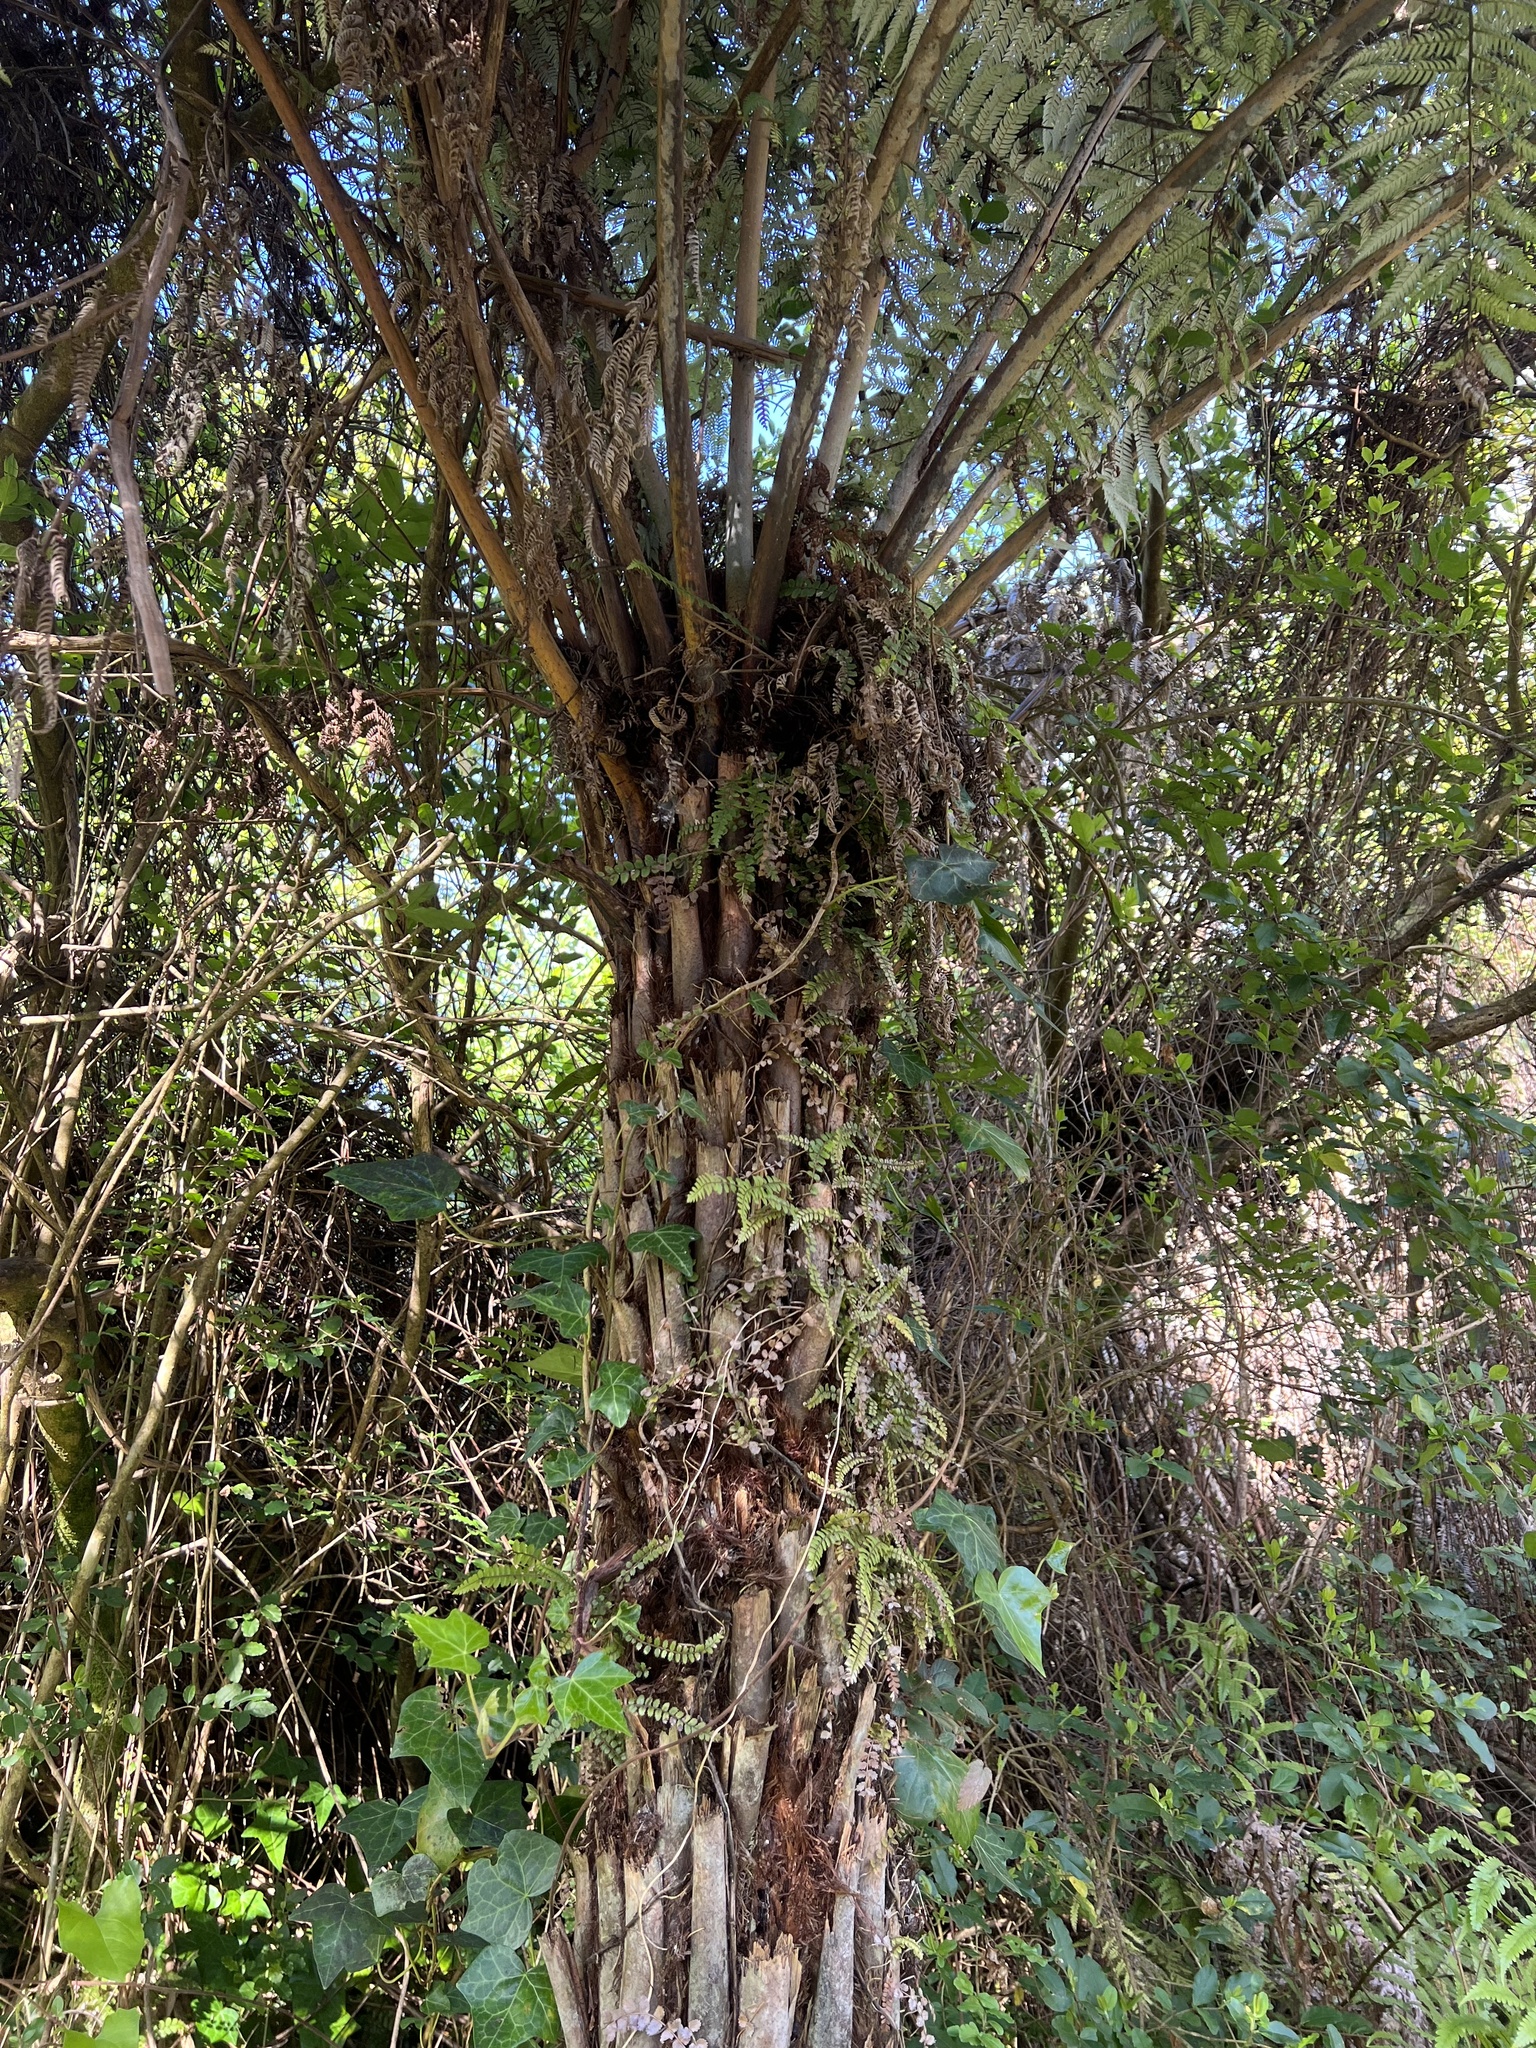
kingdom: Plantae
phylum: Tracheophyta
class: Polypodiopsida
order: Cyatheales
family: Cyatheaceae
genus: Alsophila
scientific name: Alsophila dealbata
